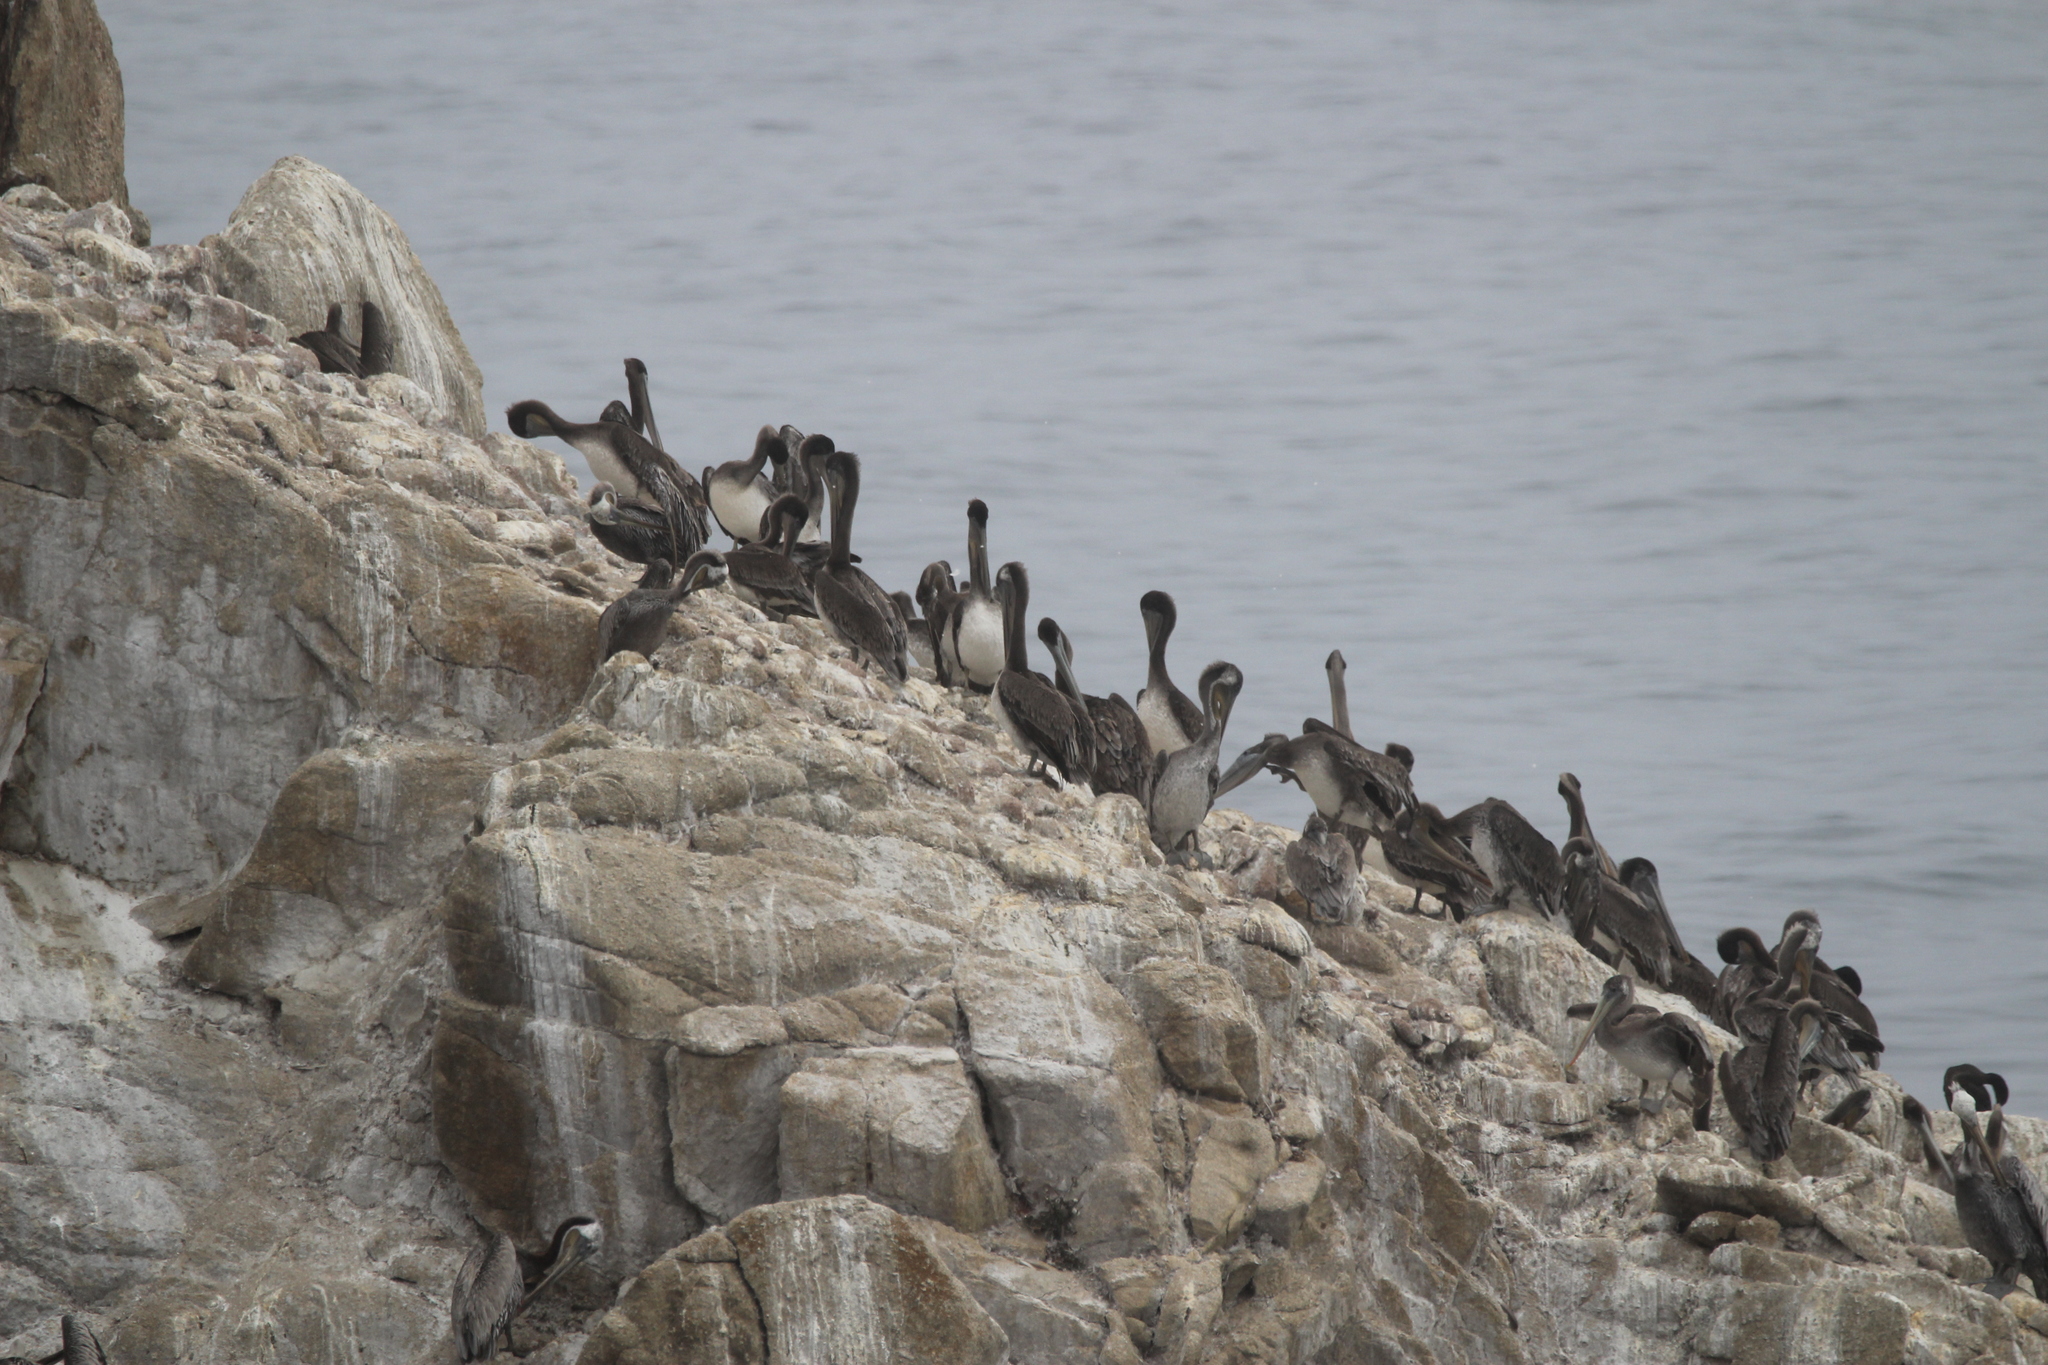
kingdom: Animalia
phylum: Chordata
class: Aves
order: Pelecaniformes
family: Pelecanidae
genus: Pelecanus
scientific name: Pelecanus occidentalis
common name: Brown pelican
